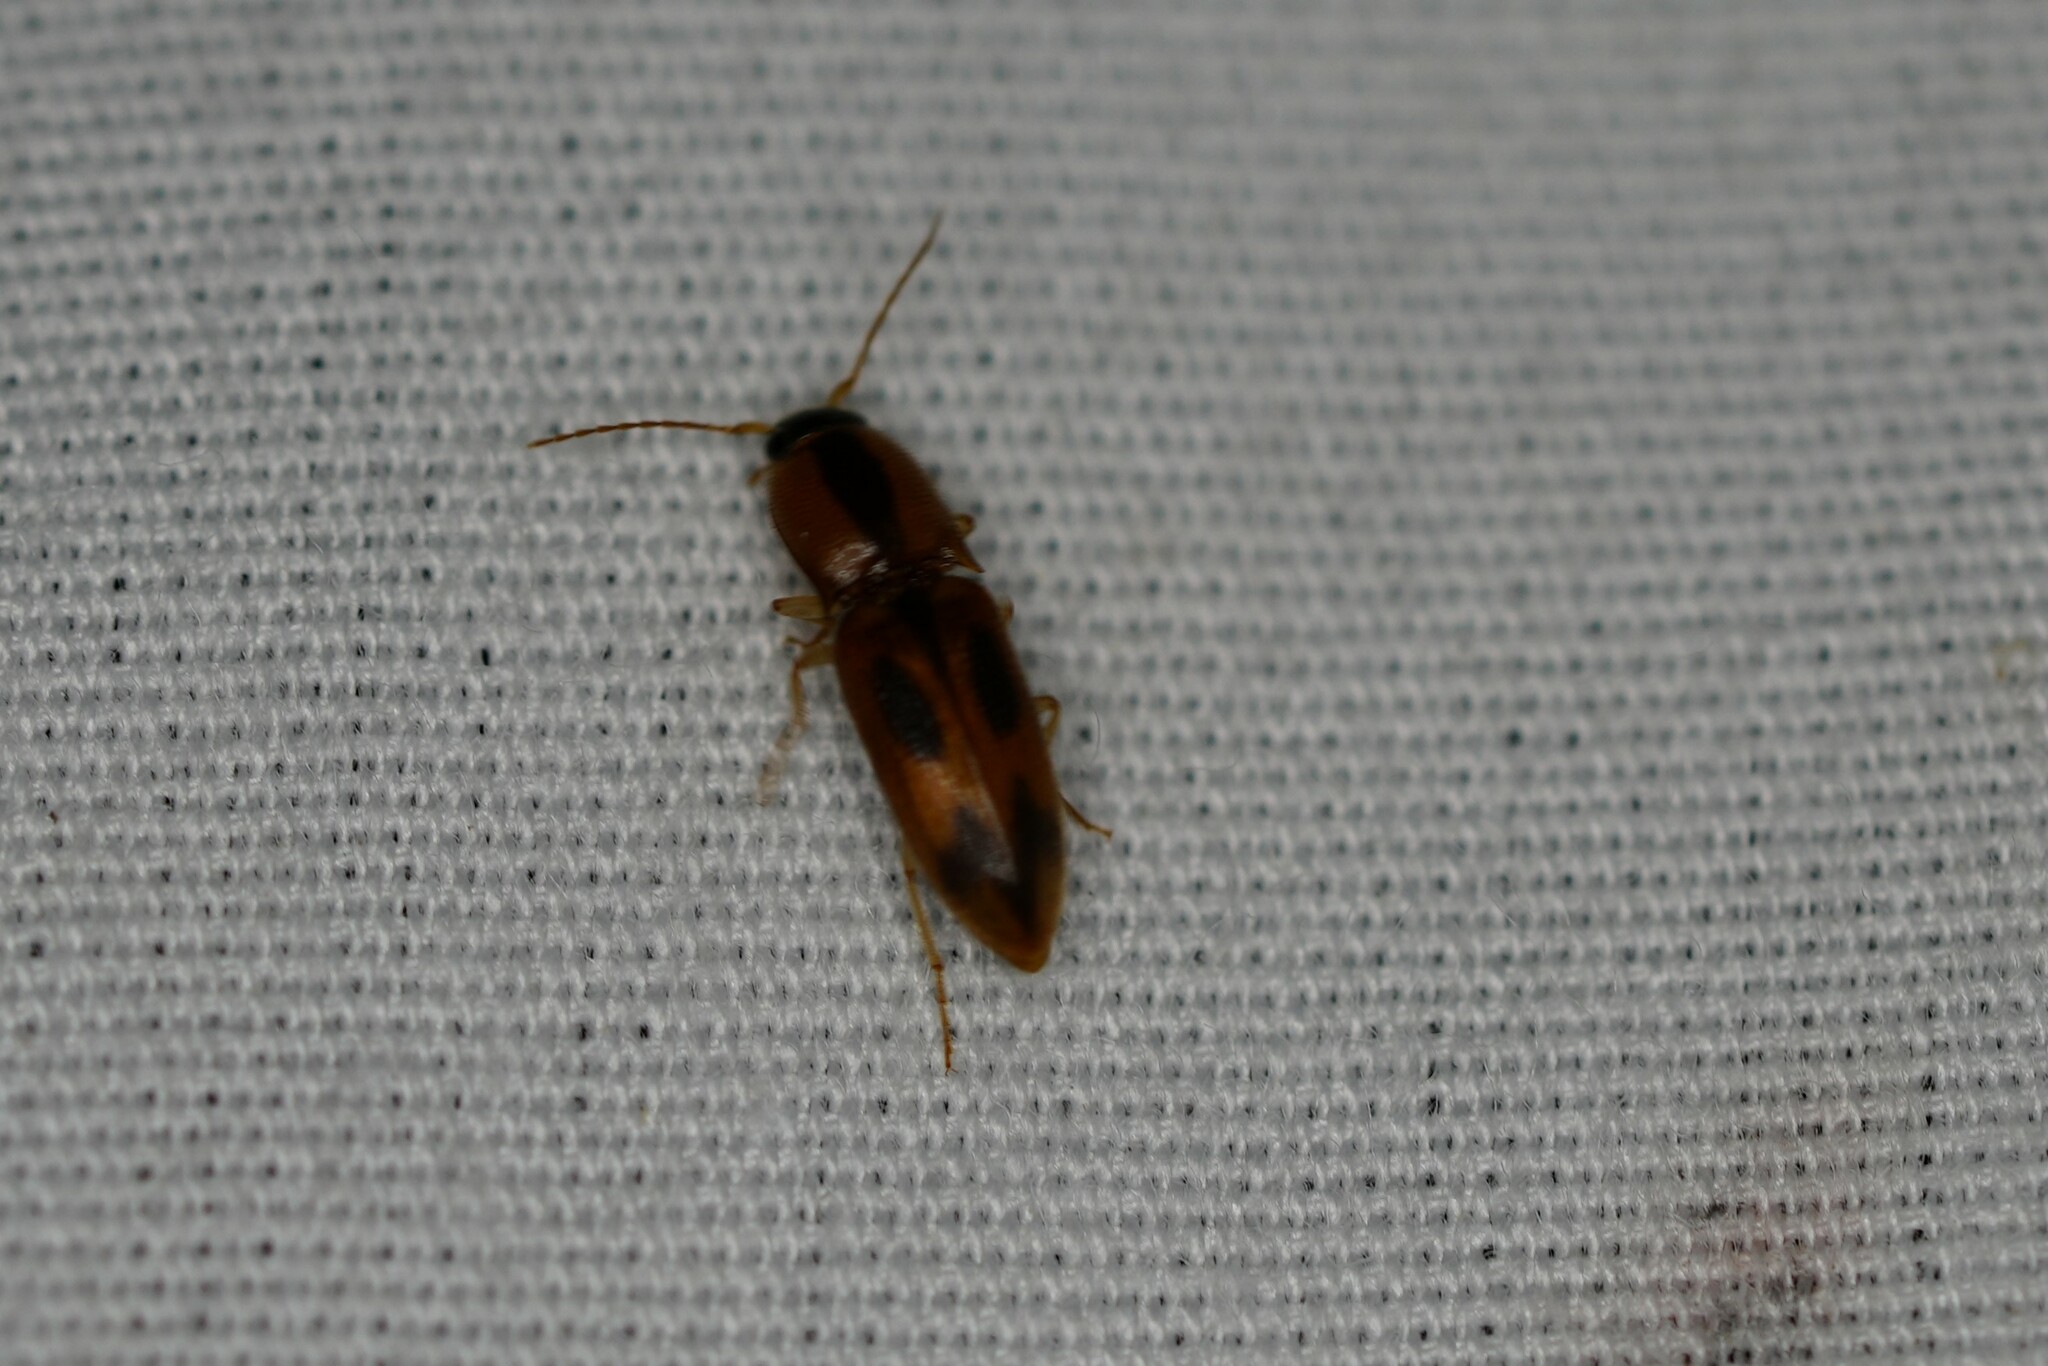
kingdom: Animalia
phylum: Arthropoda
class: Insecta
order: Coleoptera
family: Elateridae
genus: Aeolus
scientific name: Aeolus mellillus
